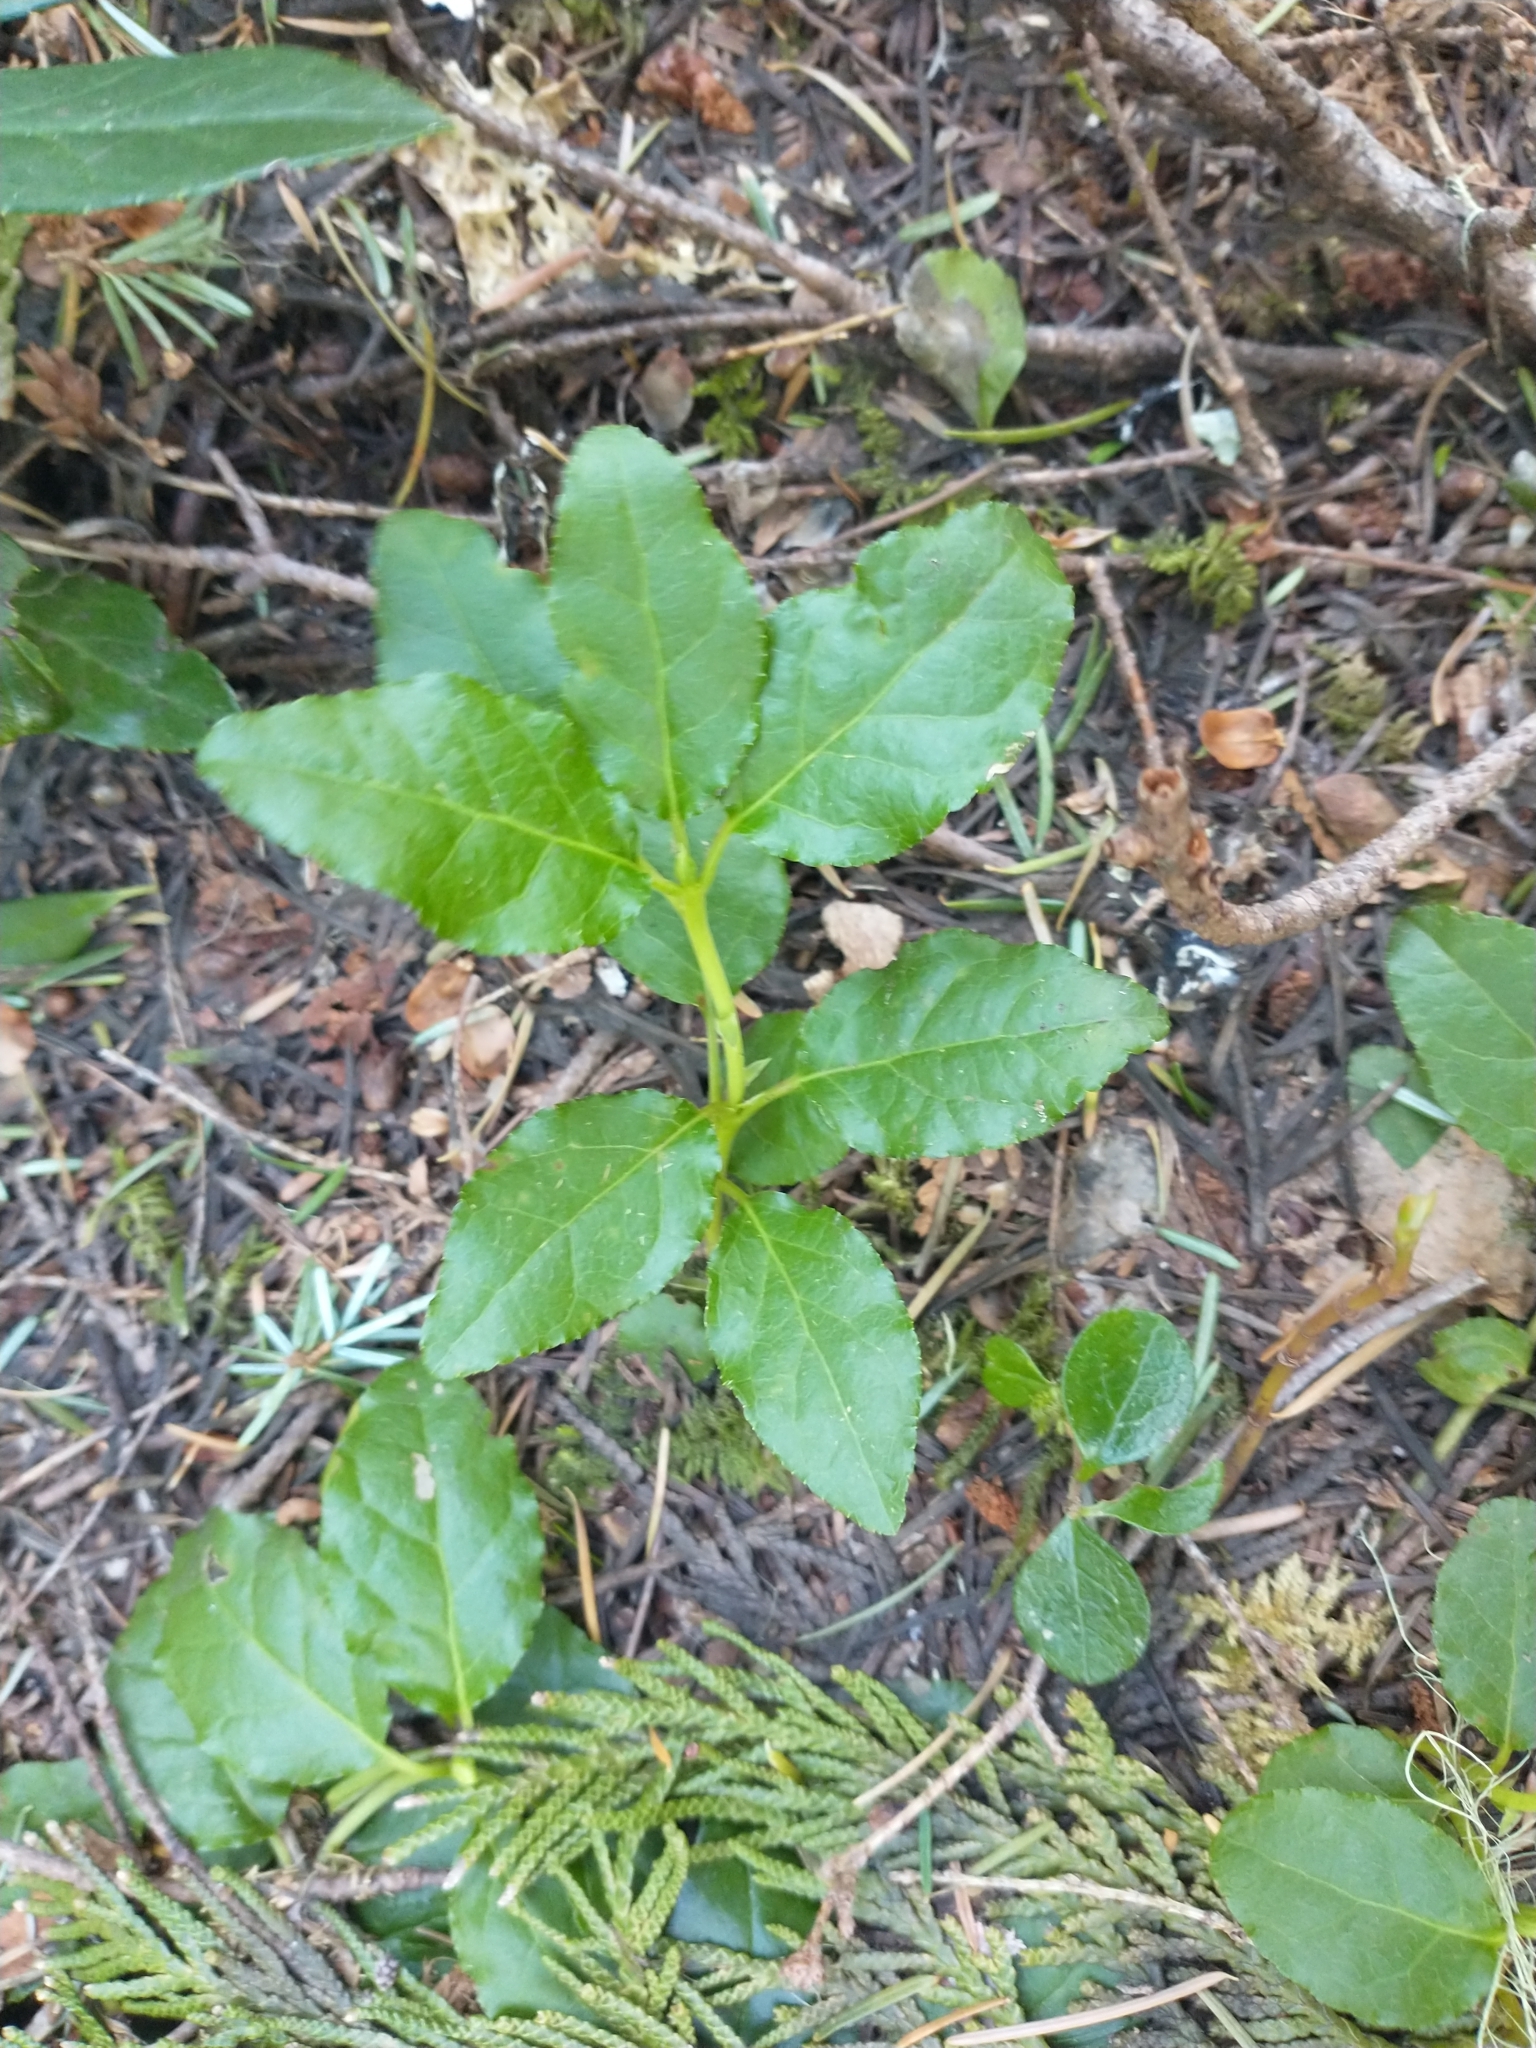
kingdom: Plantae
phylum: Tracheophyta
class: Magnoliopsida
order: Ericales
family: Ericaceae
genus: Orthilia
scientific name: Orthilia secunda
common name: One-sided orthilia
